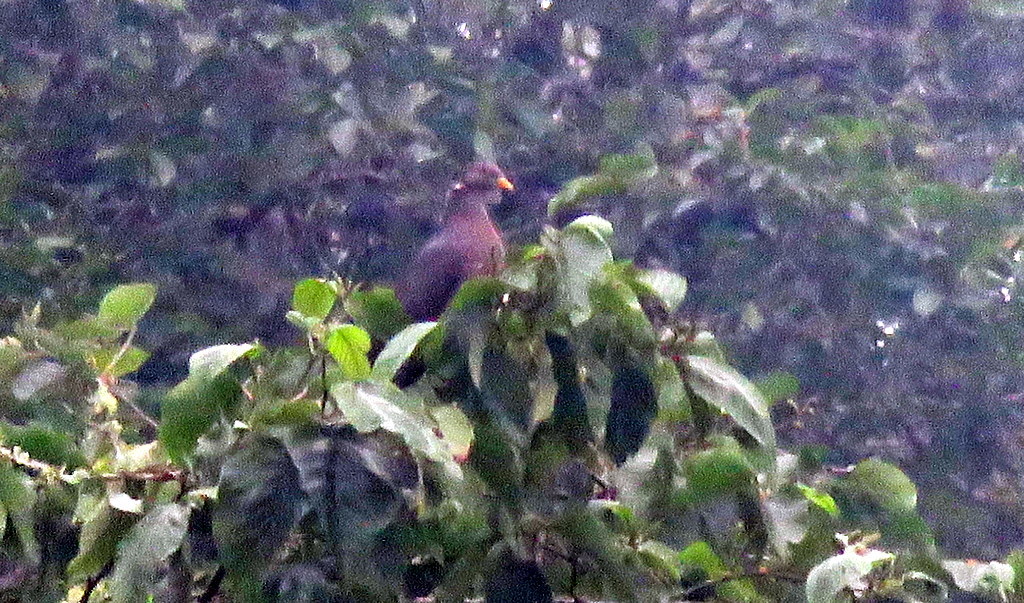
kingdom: Animalia
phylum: Chordata
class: Aves
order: Columbiformes
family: Columbidae
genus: Patagioenas
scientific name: Patagioenas fasciata
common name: Band-tailed pigeon
